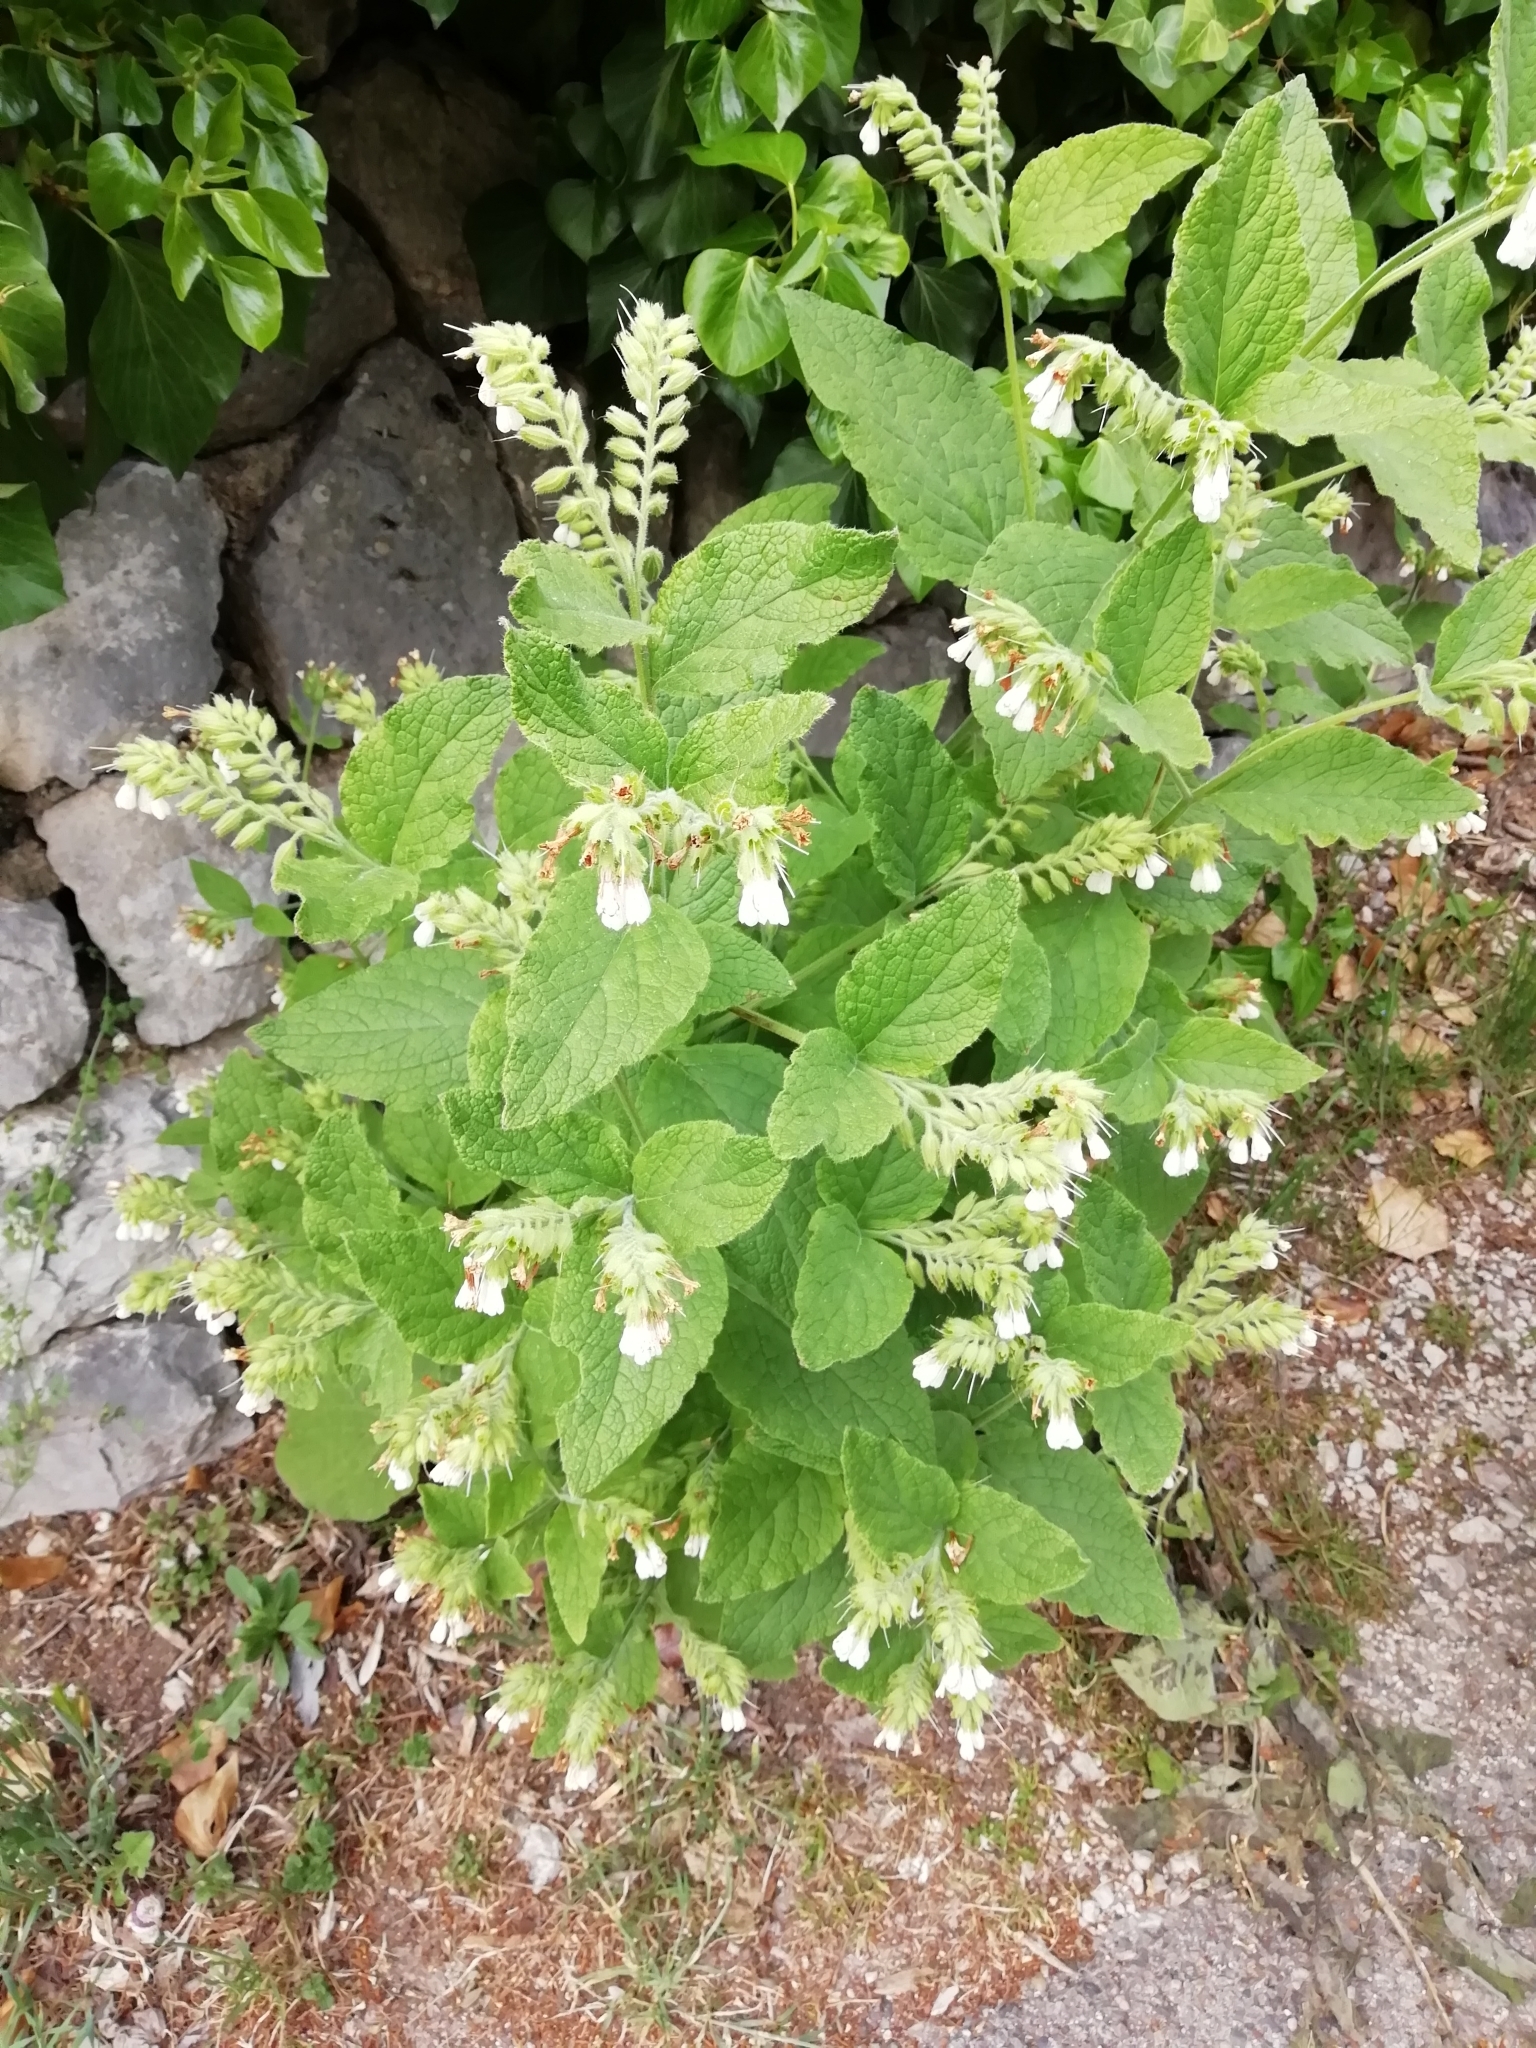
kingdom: Plantae
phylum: Tracheophyta
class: Magnoliopsida
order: Boraginales
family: Boraginaceae
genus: Symphytum
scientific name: Symphytum orientale
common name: White comfrey
